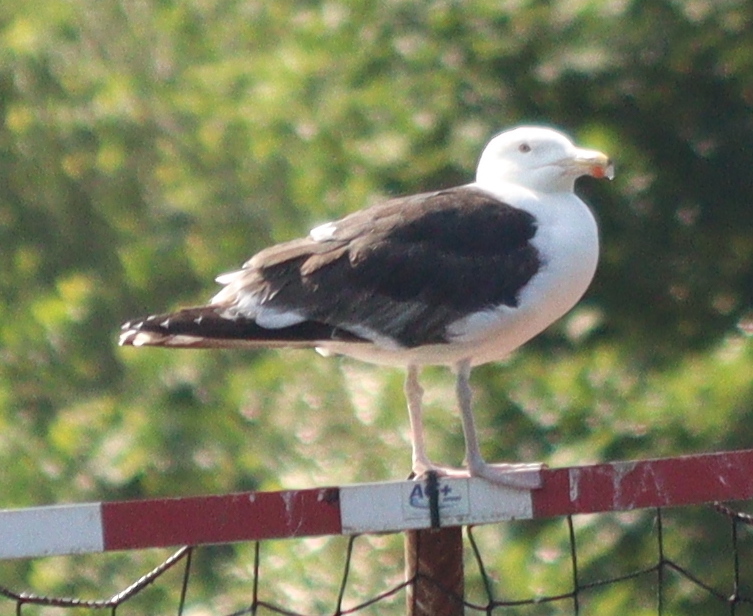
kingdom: Animalia
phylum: Chordata
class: Aves
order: Charadriiformes
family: Laridae
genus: Larus
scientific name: Larus marinus
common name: Great black-backed gull
